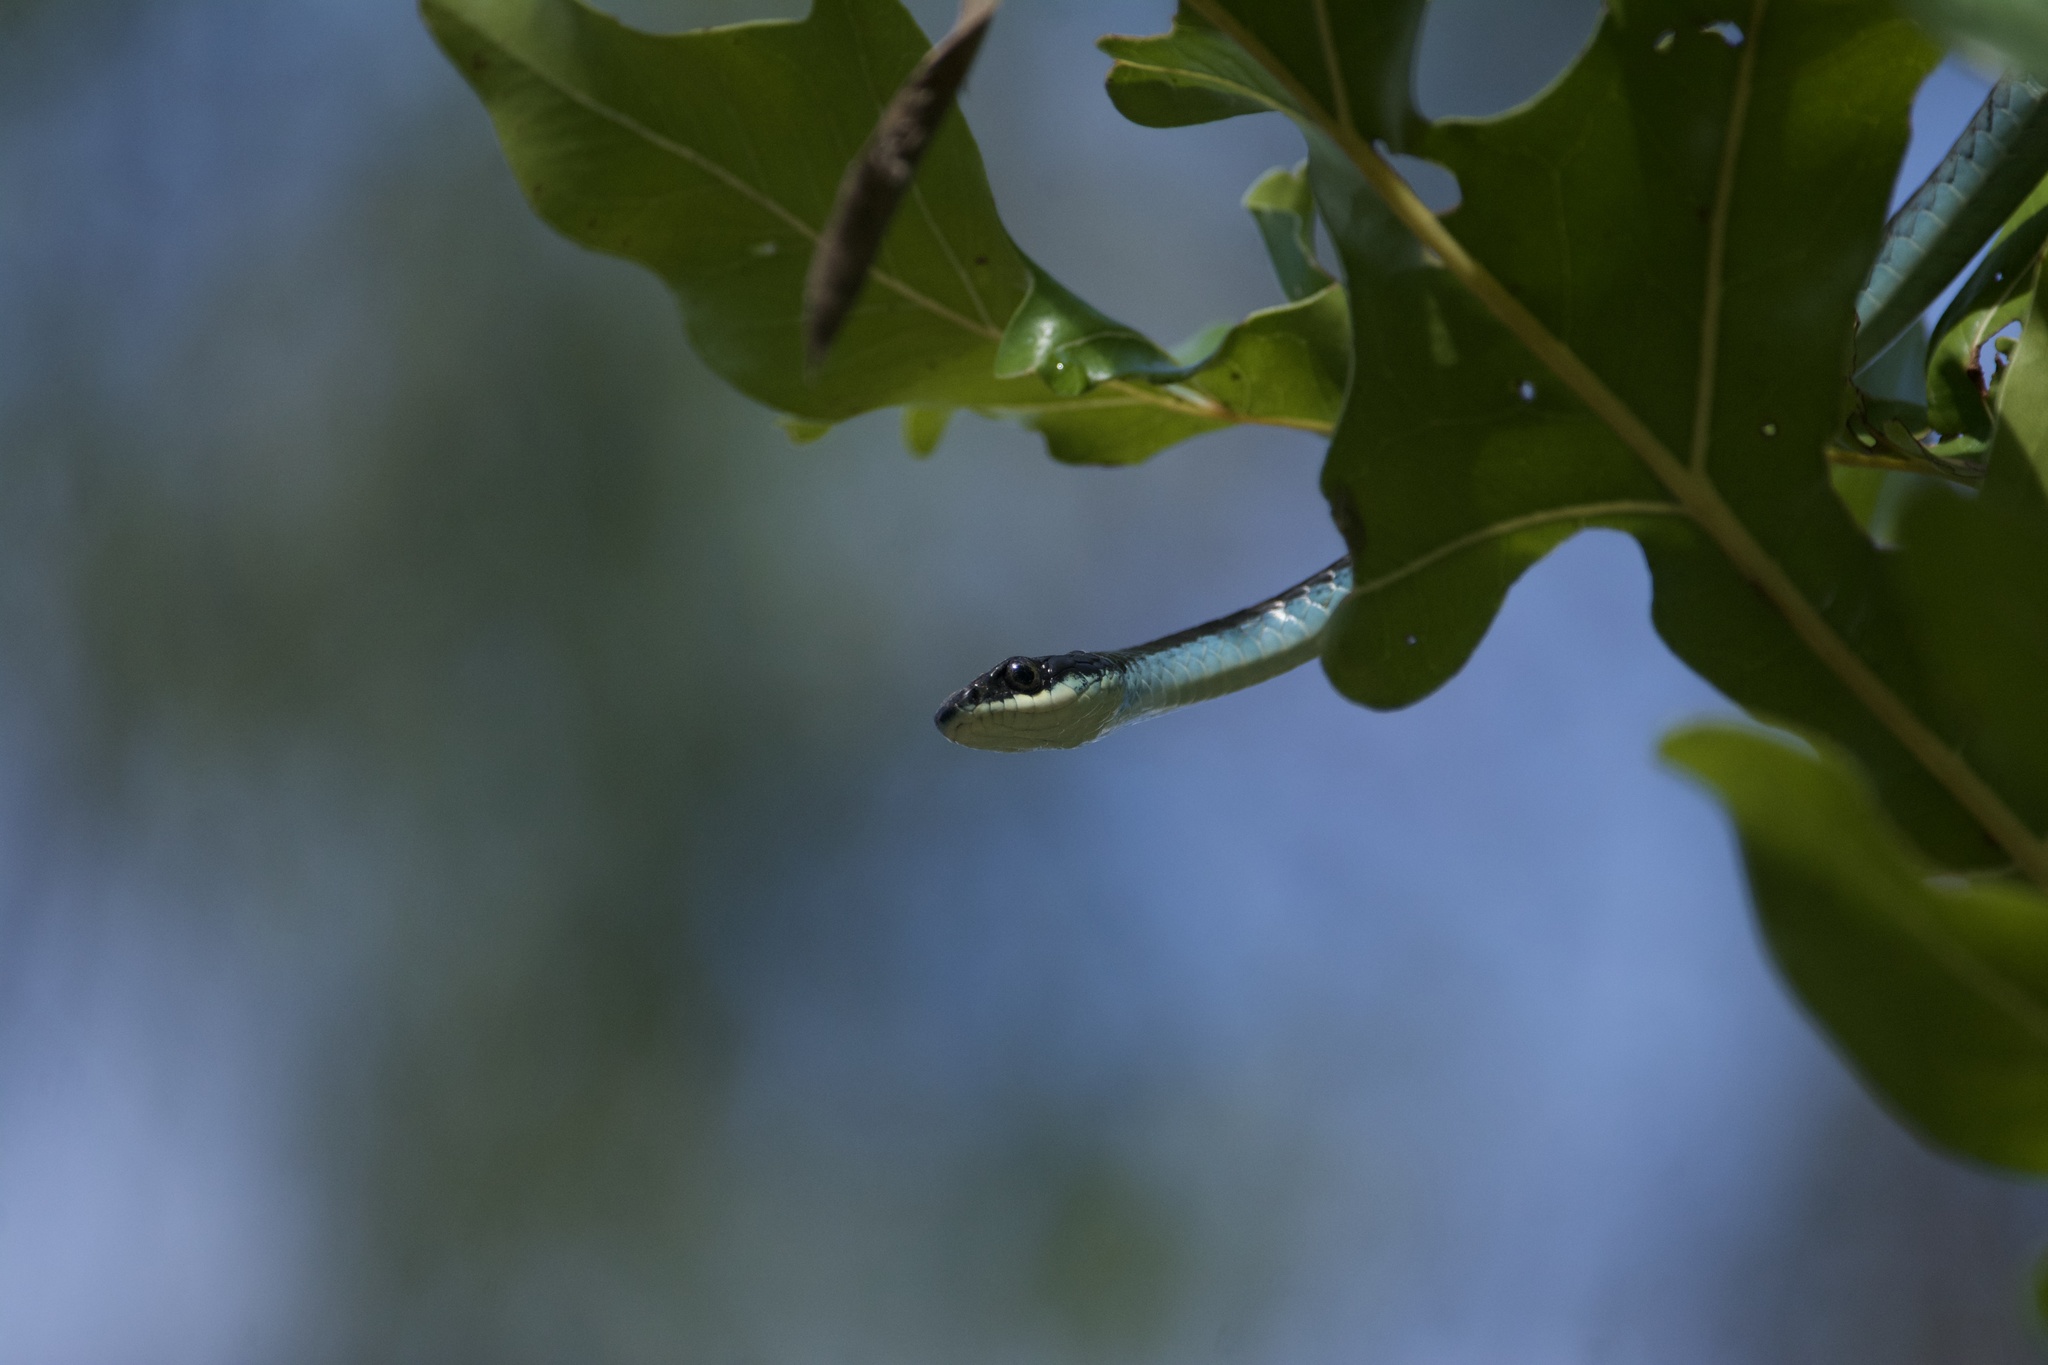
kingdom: Animalia
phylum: Chordata
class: Squamata
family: Colubridae
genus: Dendrelaphis
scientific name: Dendrelaphis punctulatus
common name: Common tree snake
